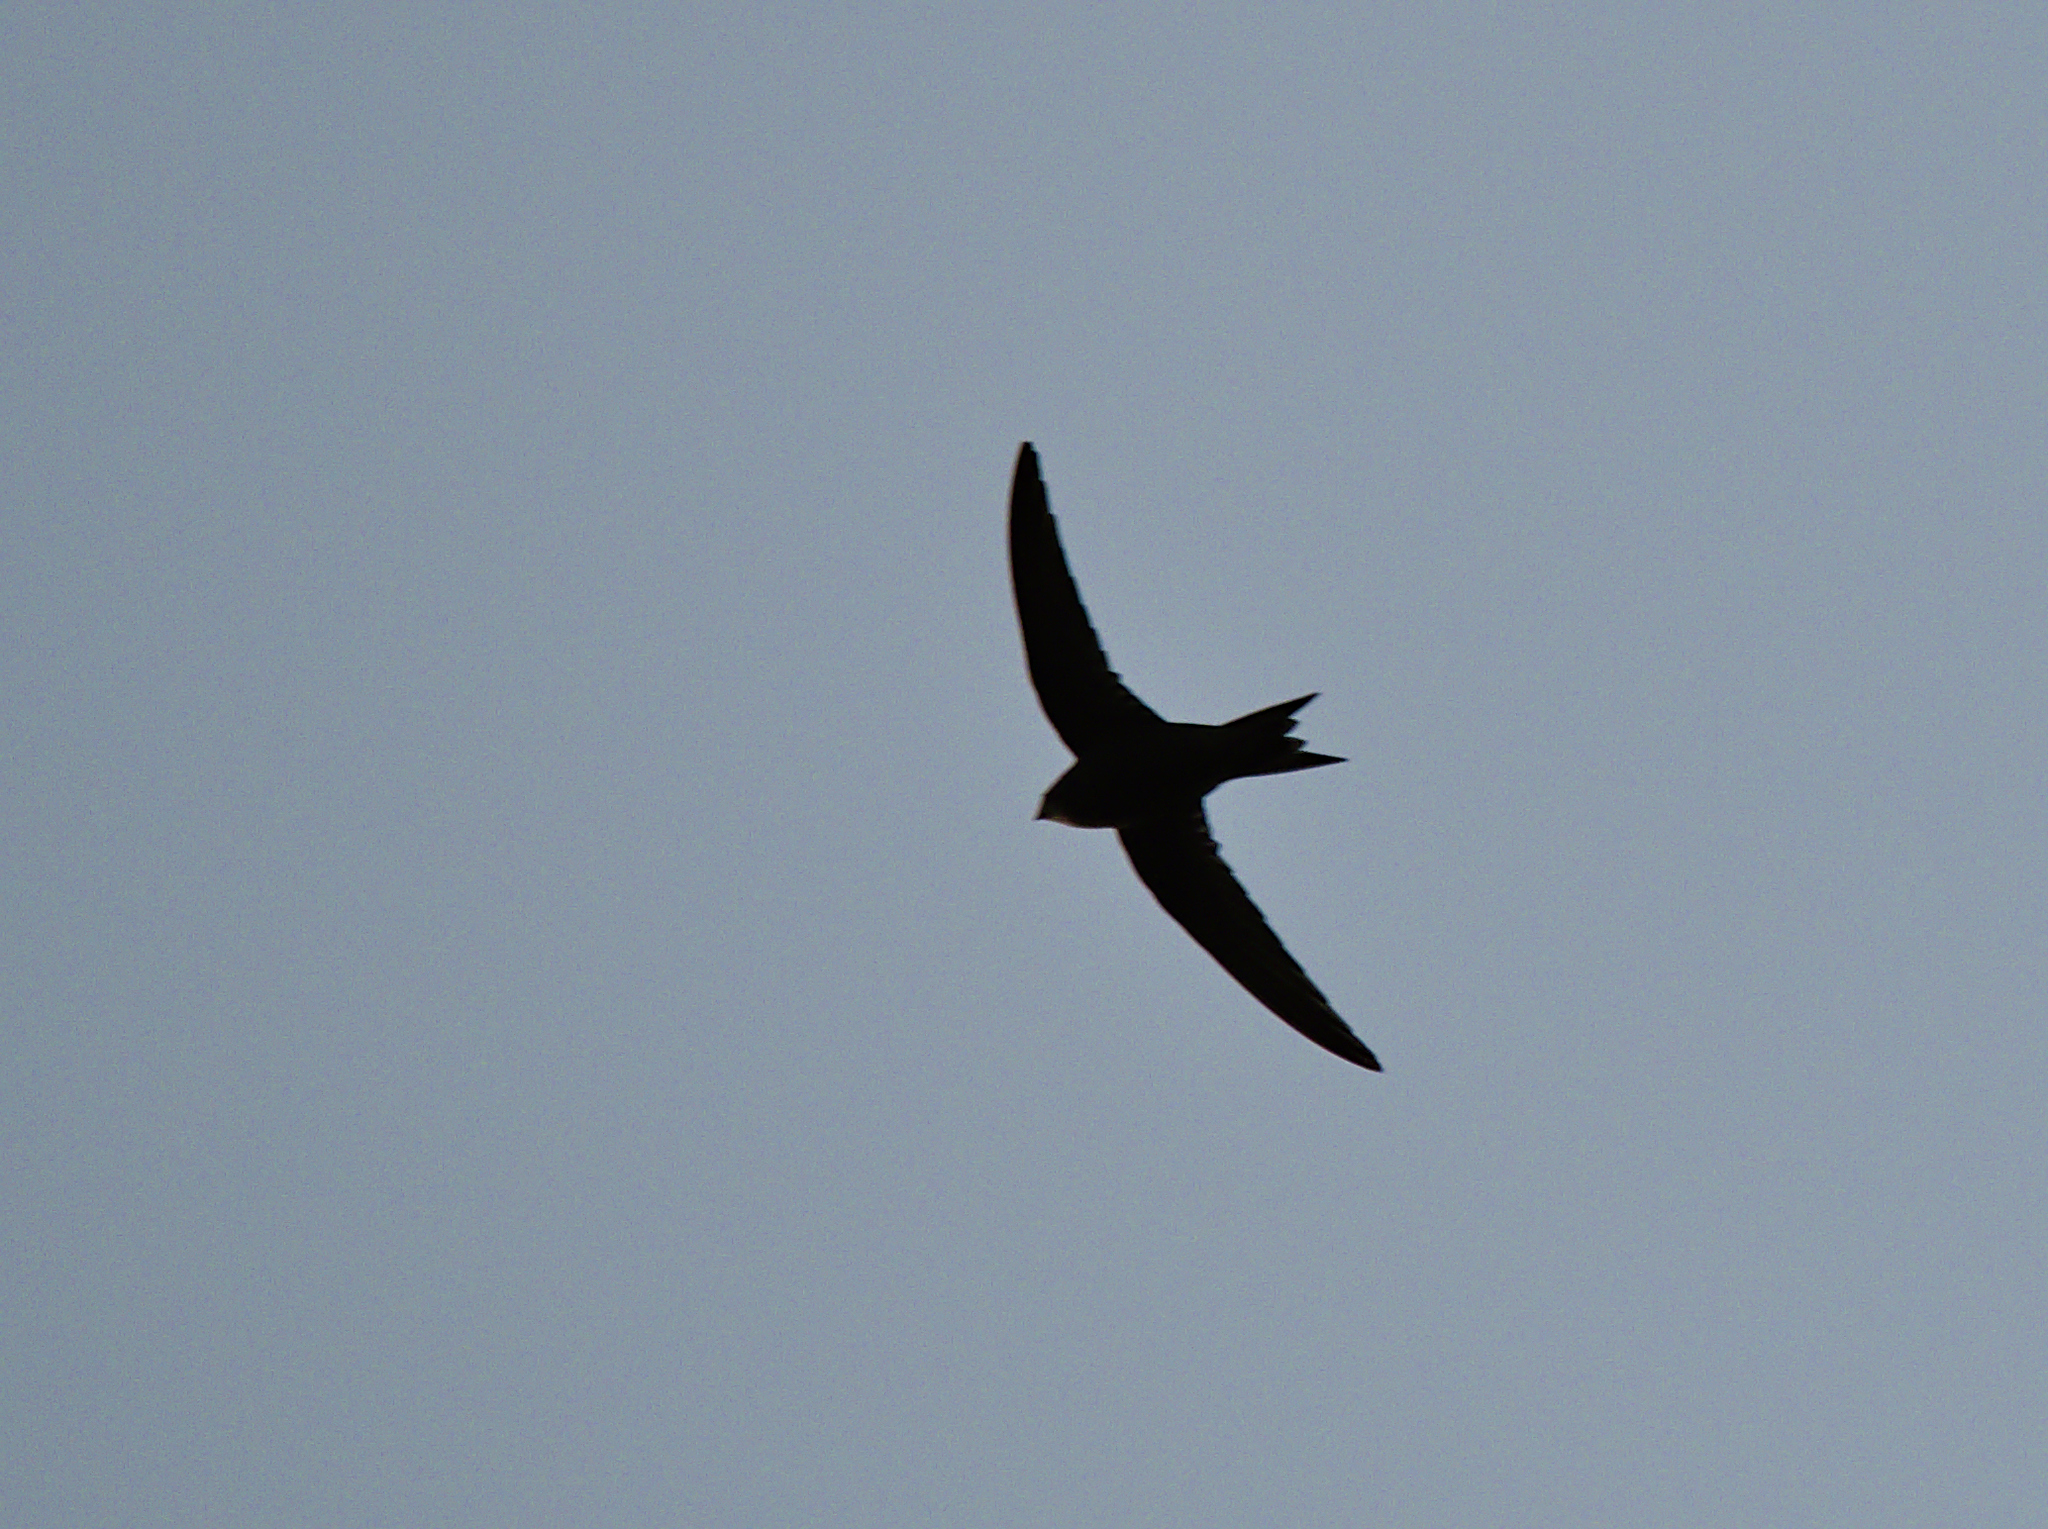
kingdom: Animalia
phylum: Chordata
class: Aves
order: Apodiformes
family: Apodidae
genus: Apus
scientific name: Apus apus
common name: Common swift
